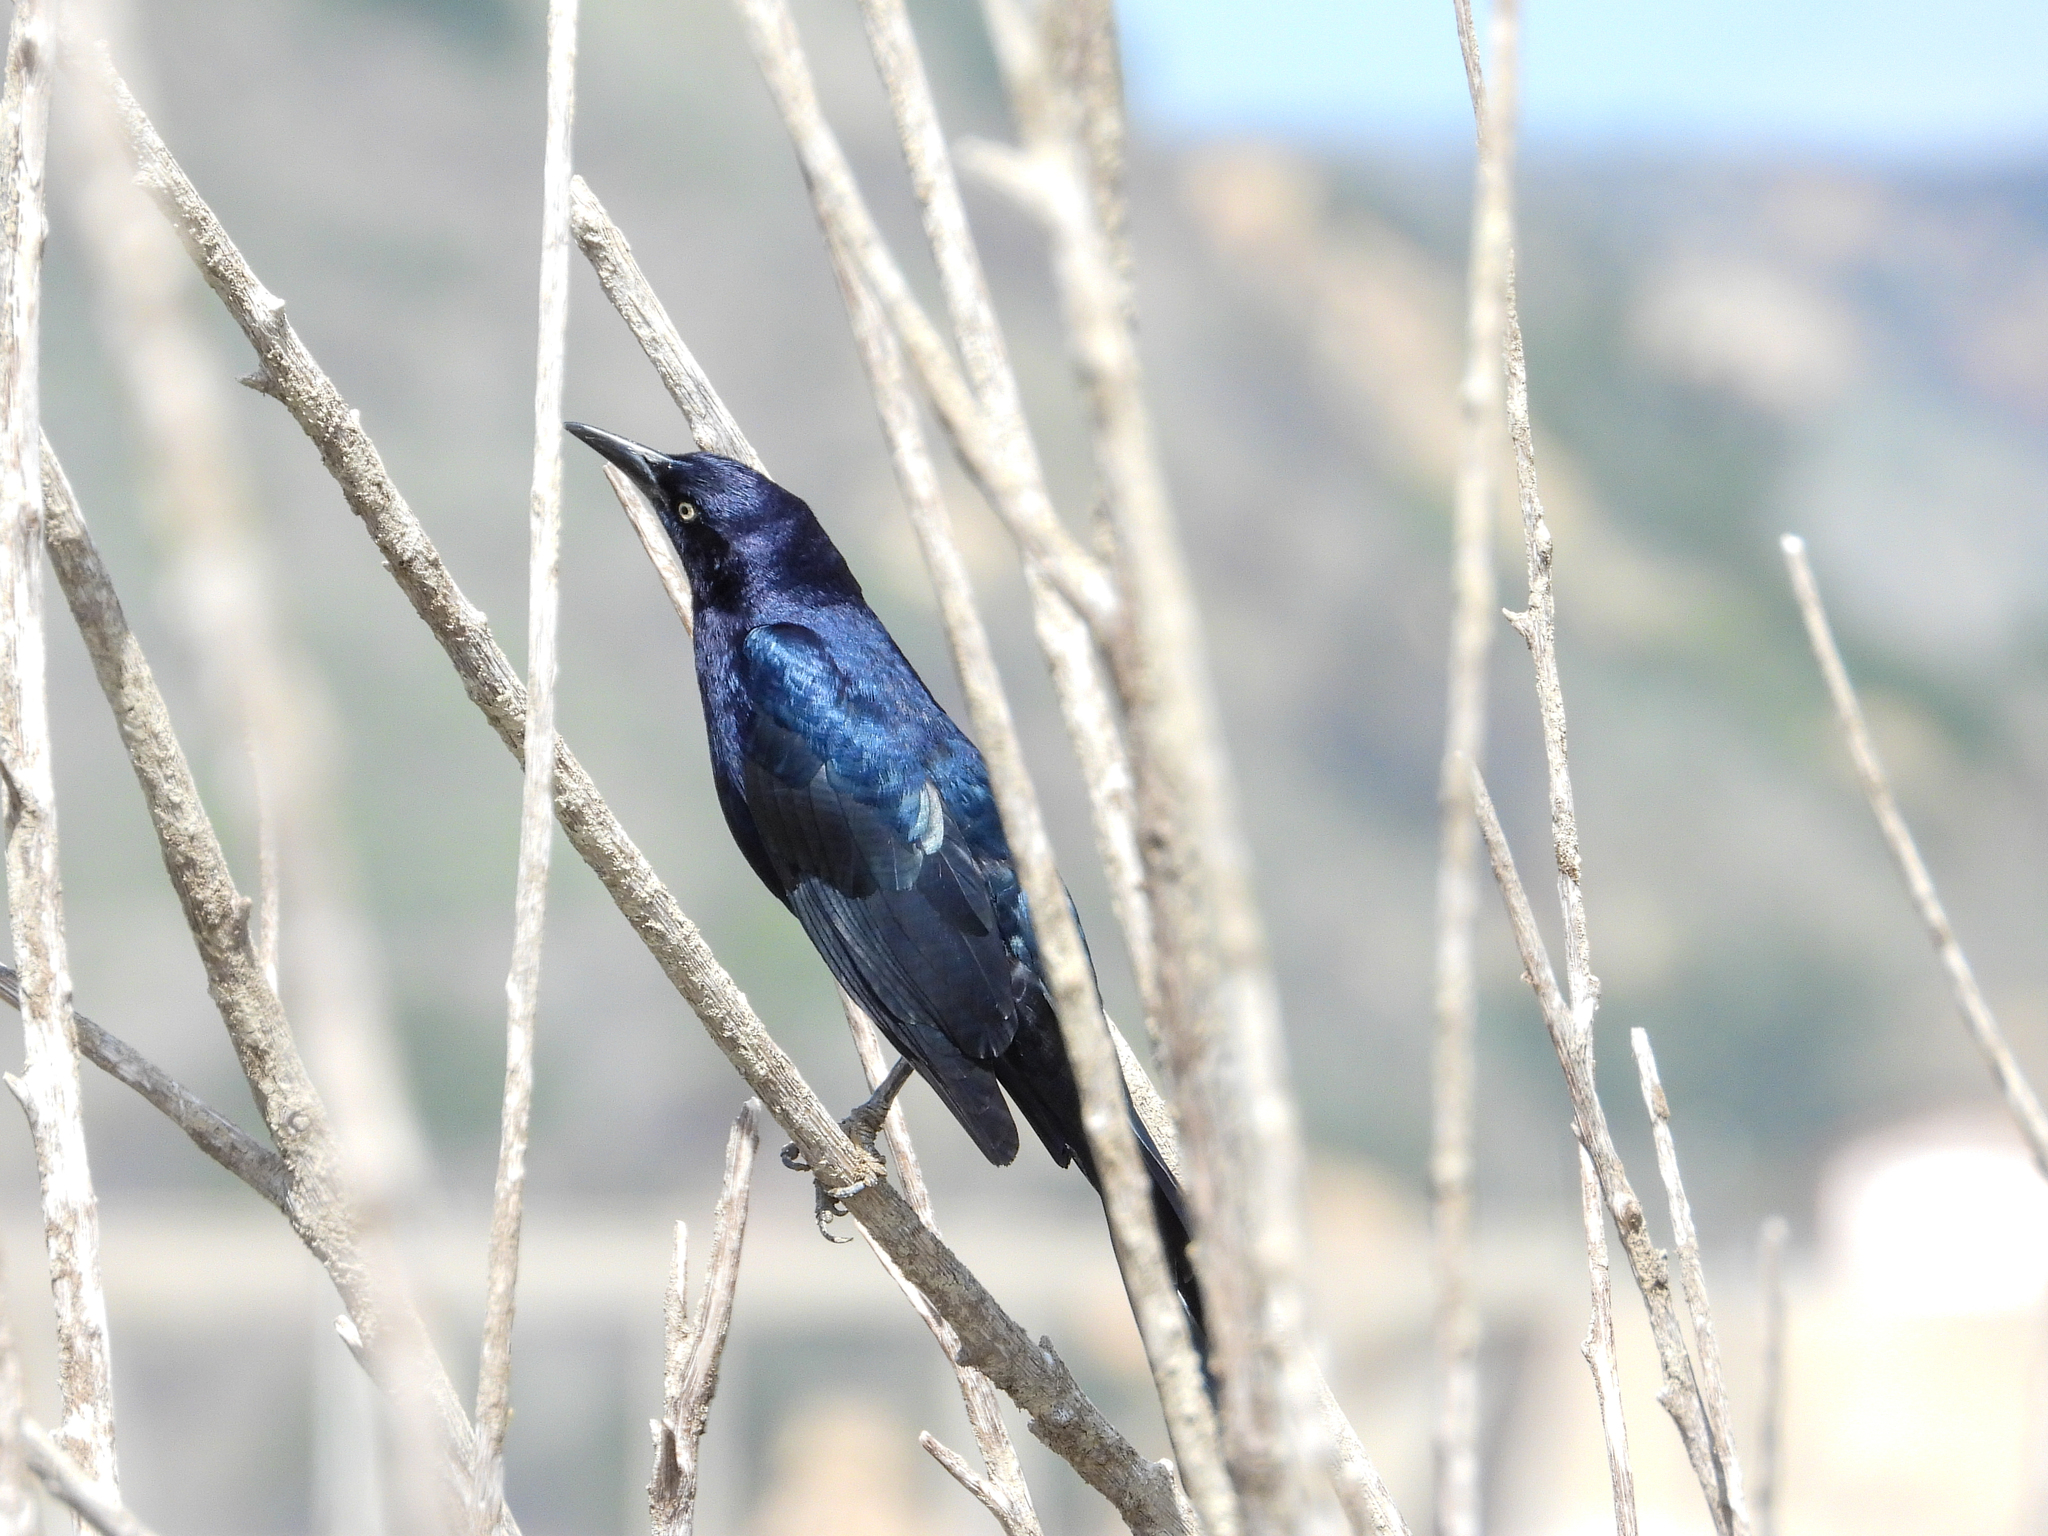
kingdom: Animalia
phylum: Chordata
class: Aves
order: Passeriformes
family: Icteridae
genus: Quiscalus
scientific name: Quiscalus mexicanus
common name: Great-tailed grackle
